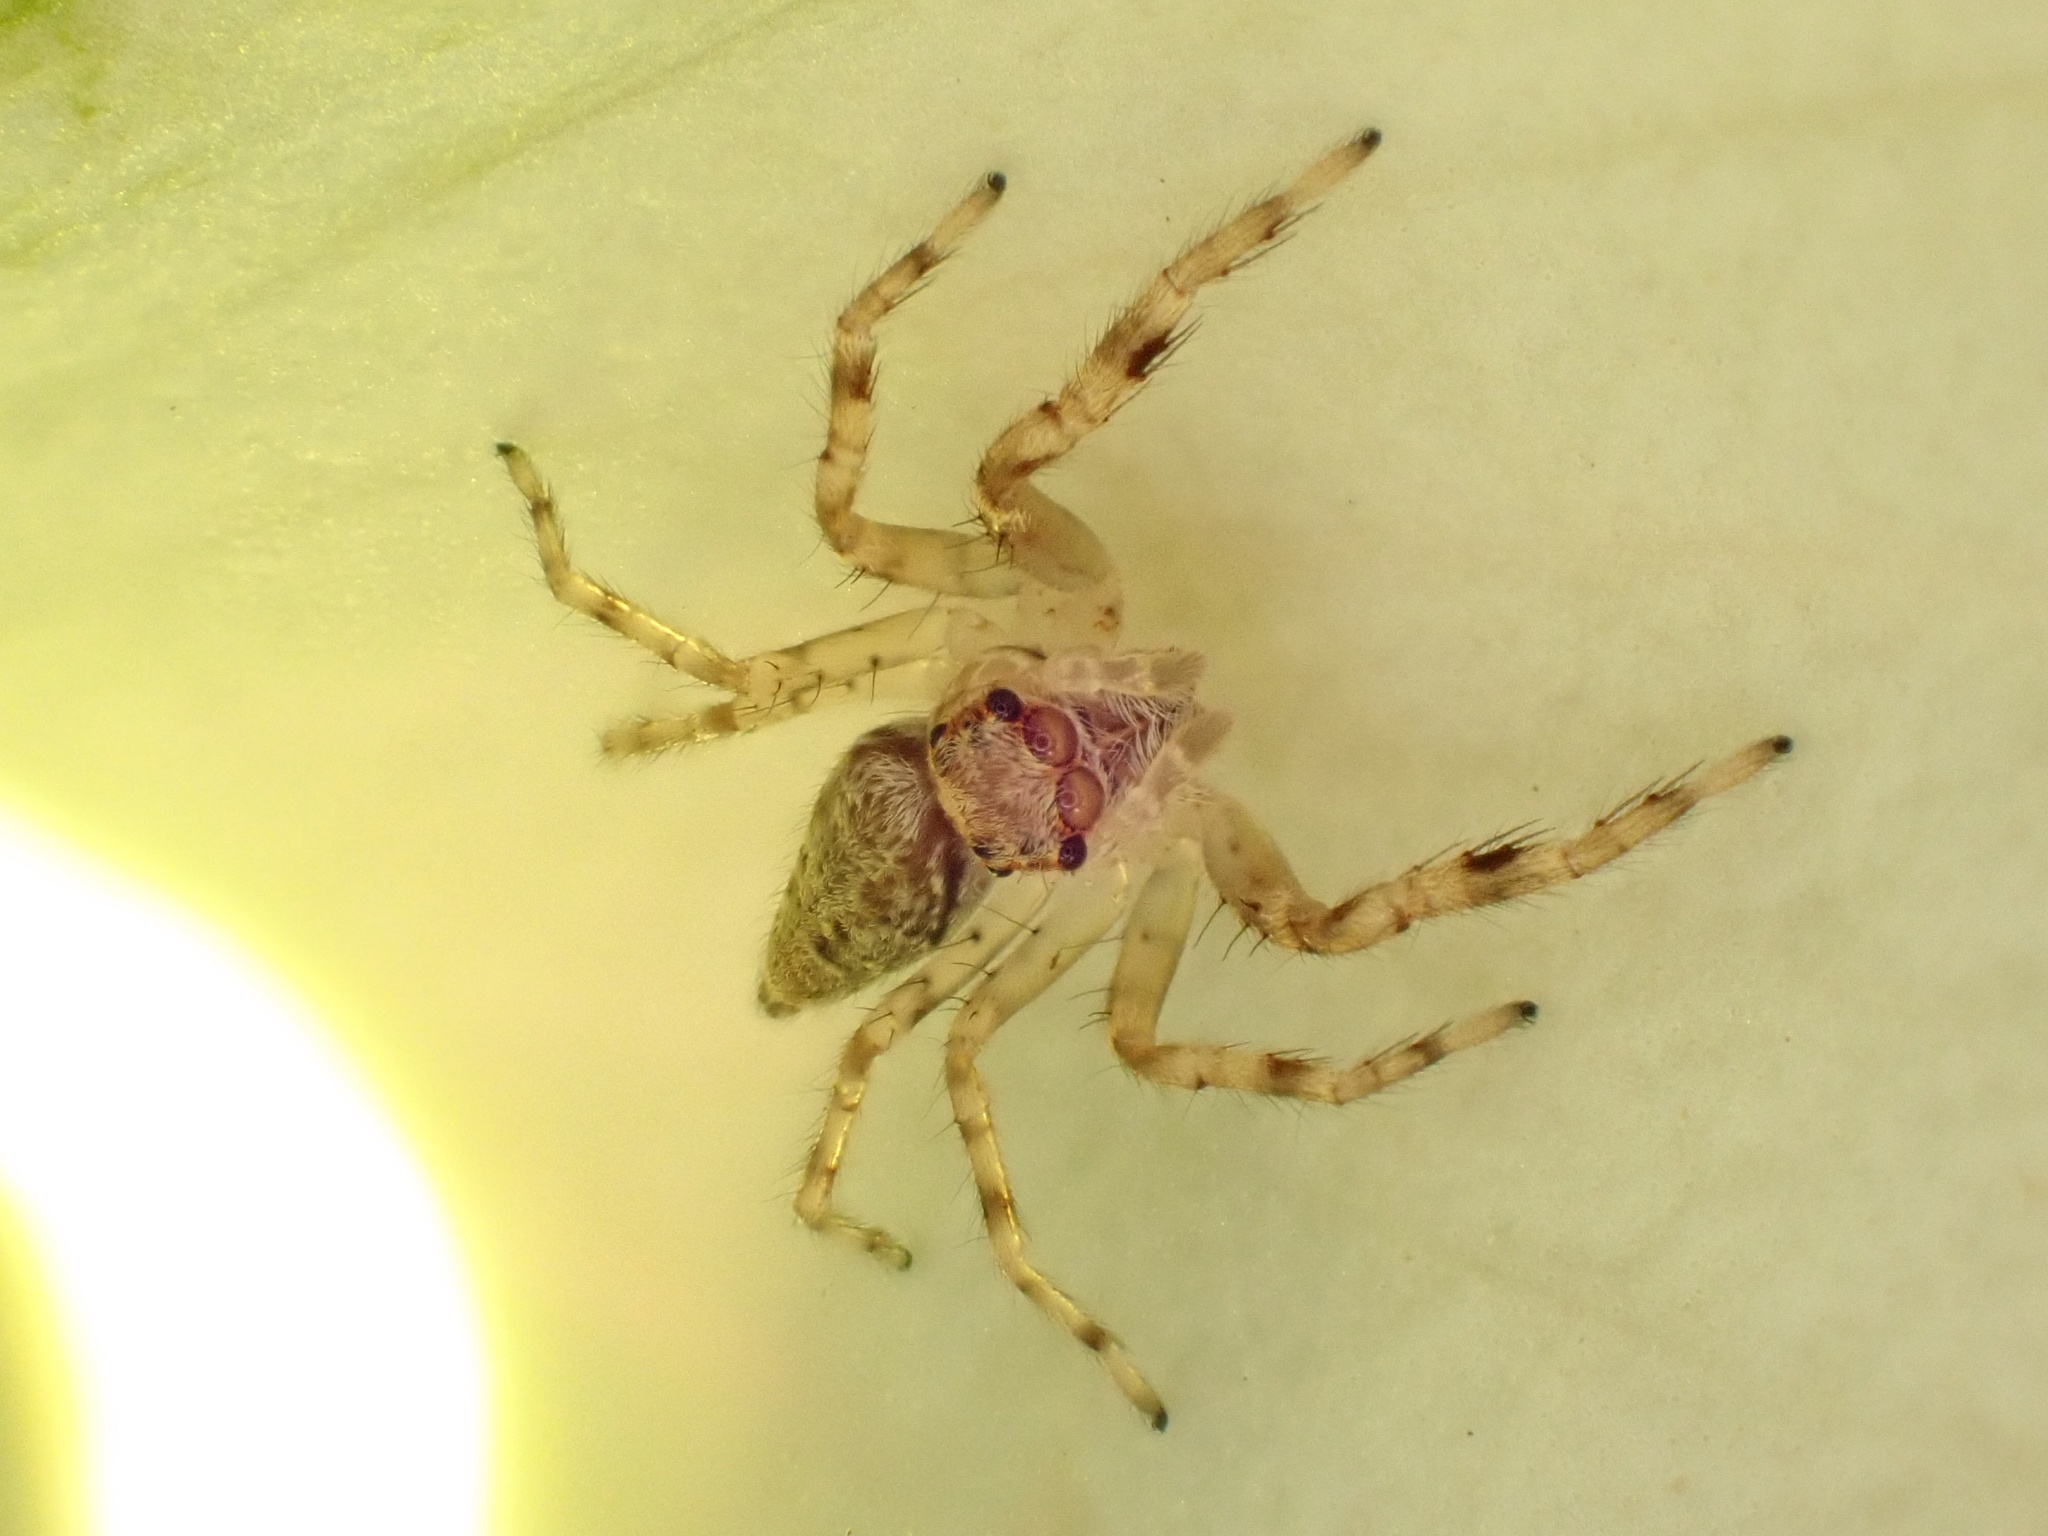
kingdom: Animalia
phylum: Arthropoda
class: Arachnida
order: Araneae
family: Salticidae
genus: Helpis
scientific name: Helpis minitabunda
